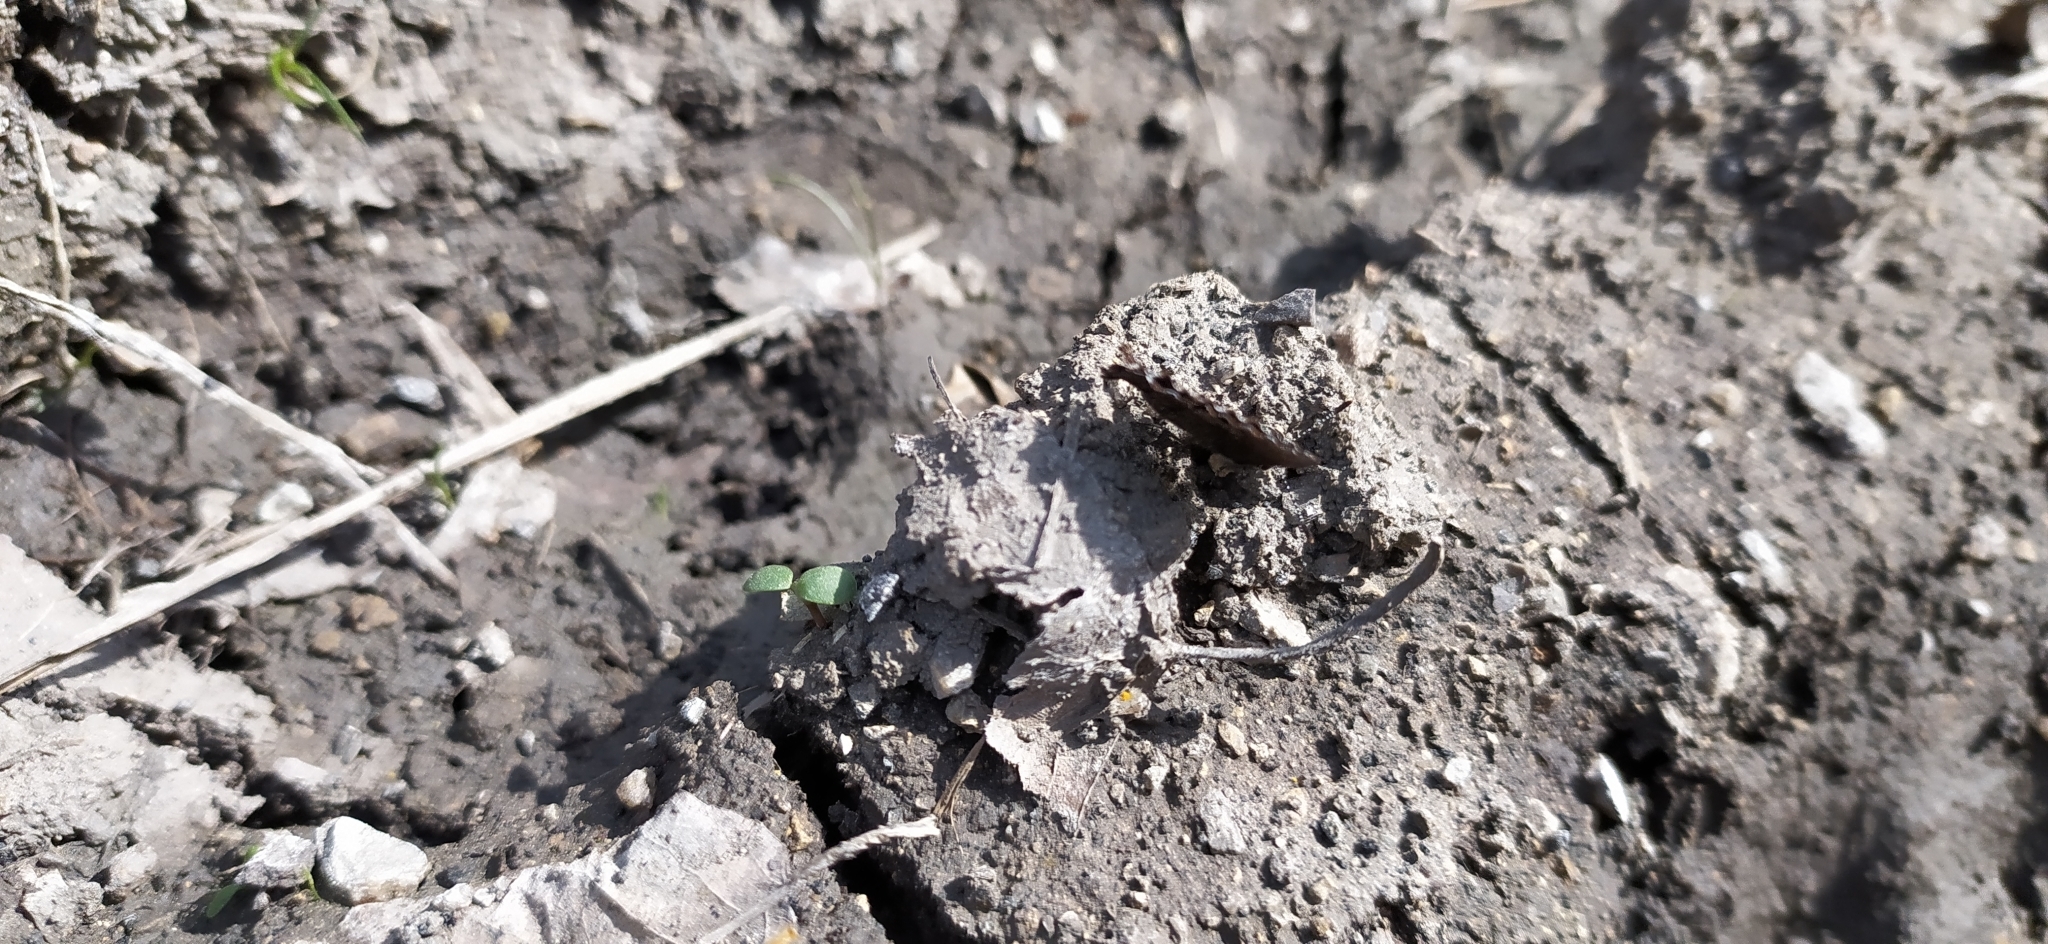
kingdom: Animalia
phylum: Arthropoda
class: Insecta
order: Lepidoptera
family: Lycaenidae
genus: Ginzia
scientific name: Ginzia Ahlbergia frivaldszkyi
